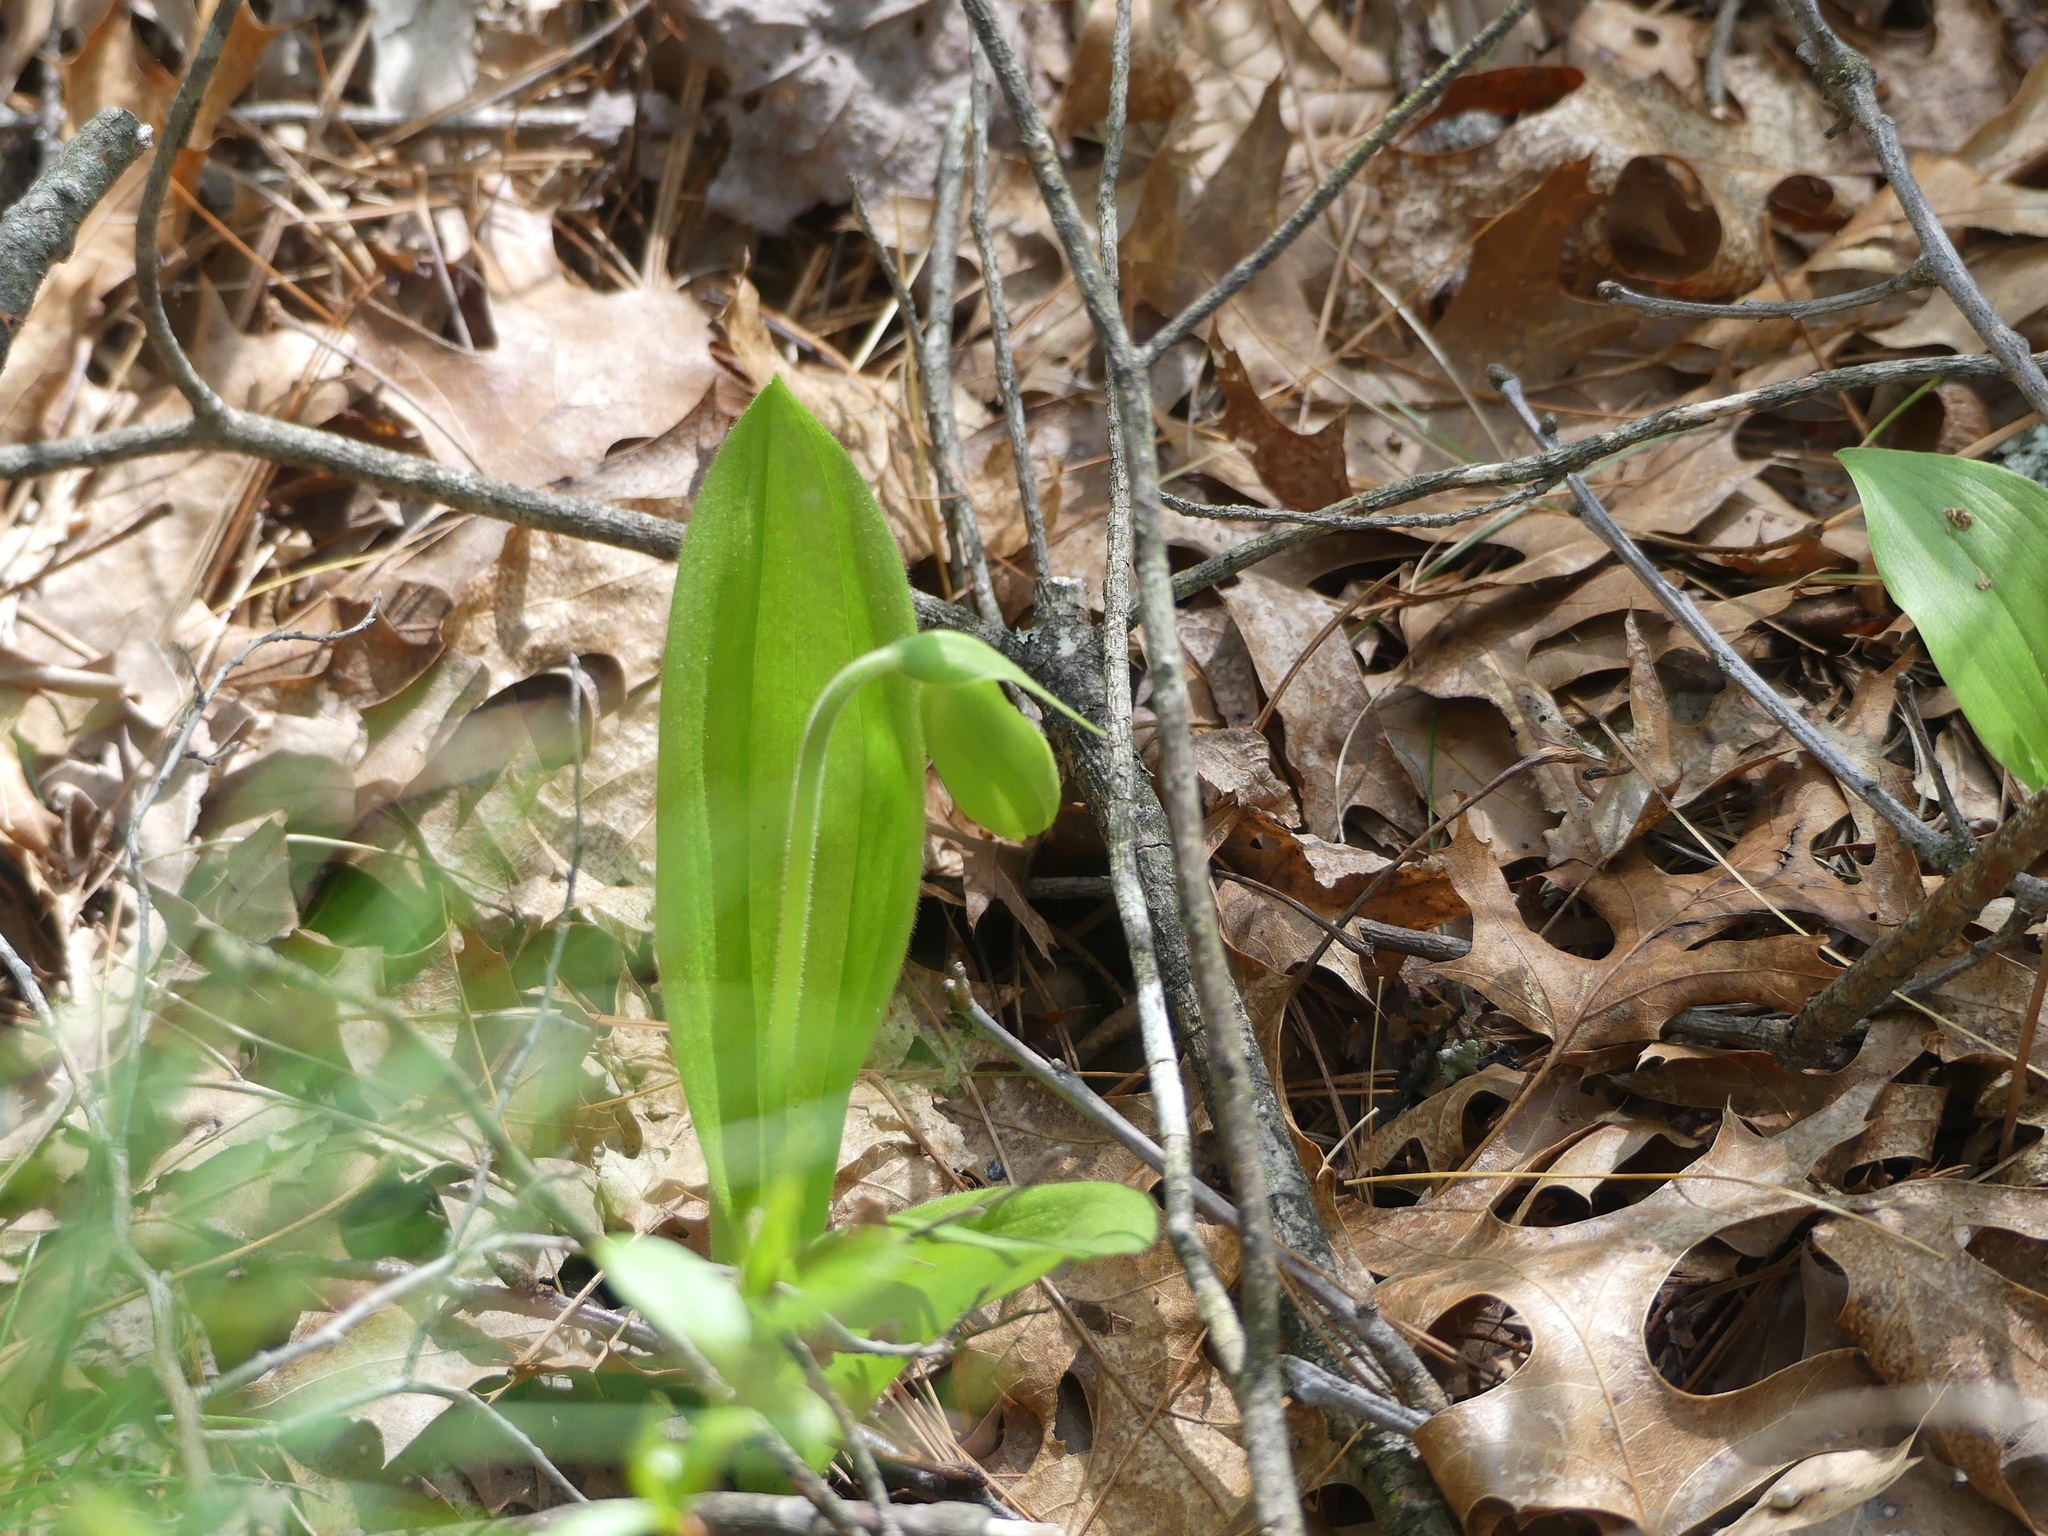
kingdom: Plantae
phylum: Tracheophyta
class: Liliopsida
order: Asparagales
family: Orchidaceae
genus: Cypripedium
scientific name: Cypripedium acaule
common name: Pink lady's-slipper
